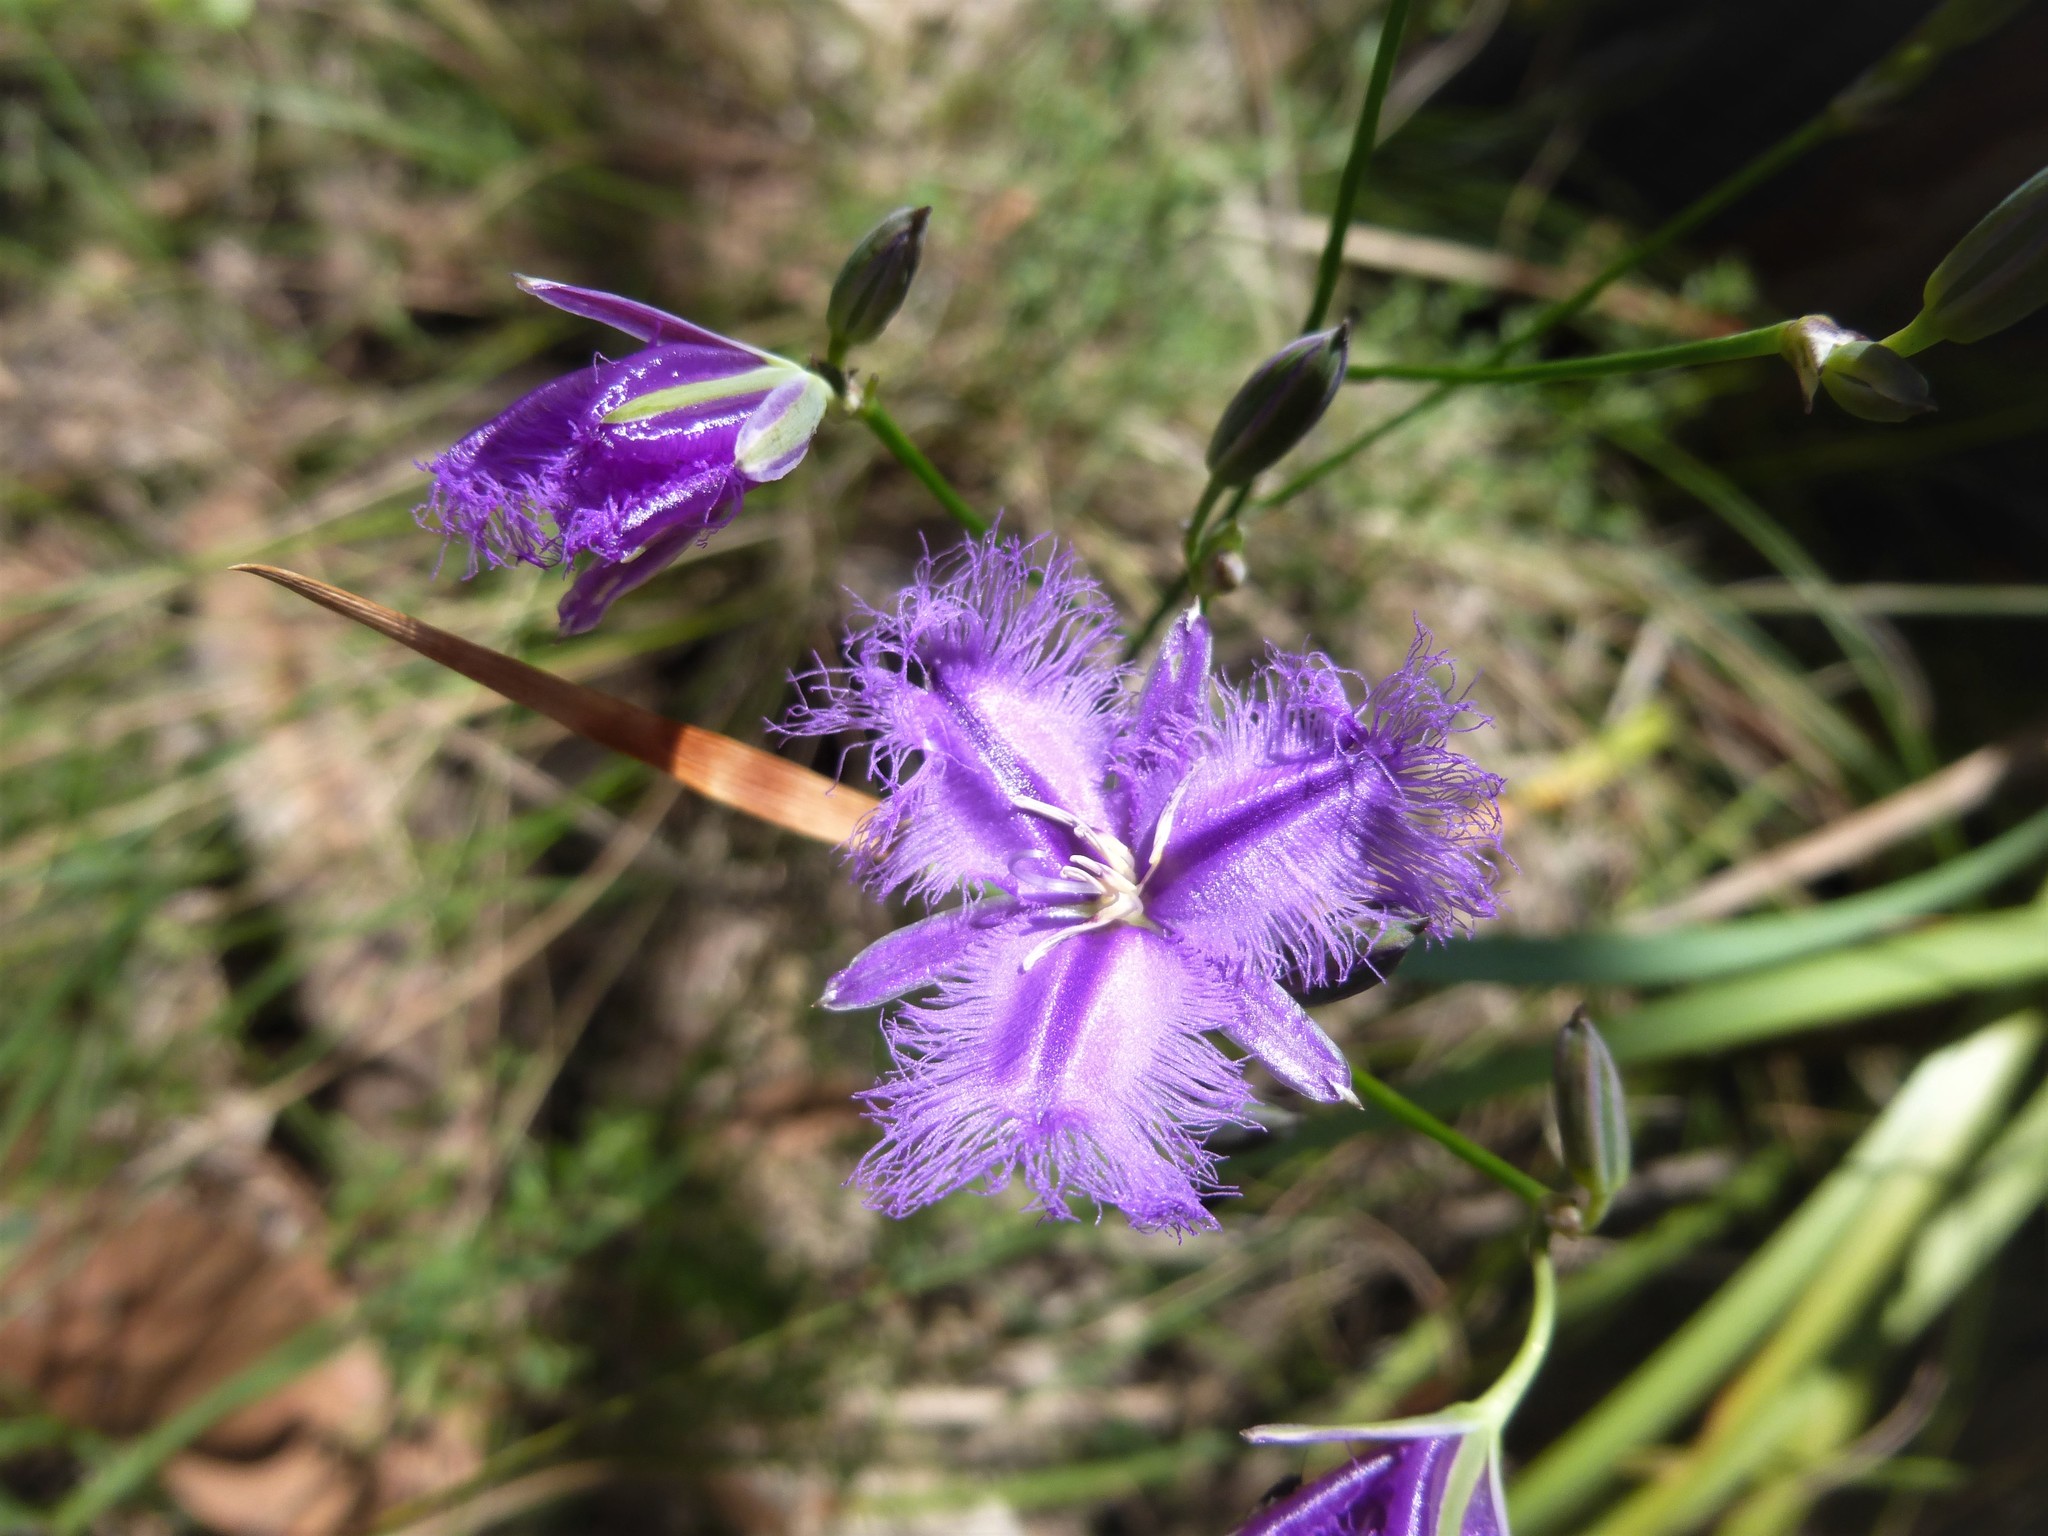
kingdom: Plantae
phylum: Tracheophyta
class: Liliopsida
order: Asparagales
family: Asparagaceae
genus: Thysanotus
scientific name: Thysanotus tuberosus
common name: Common fringed-lily
